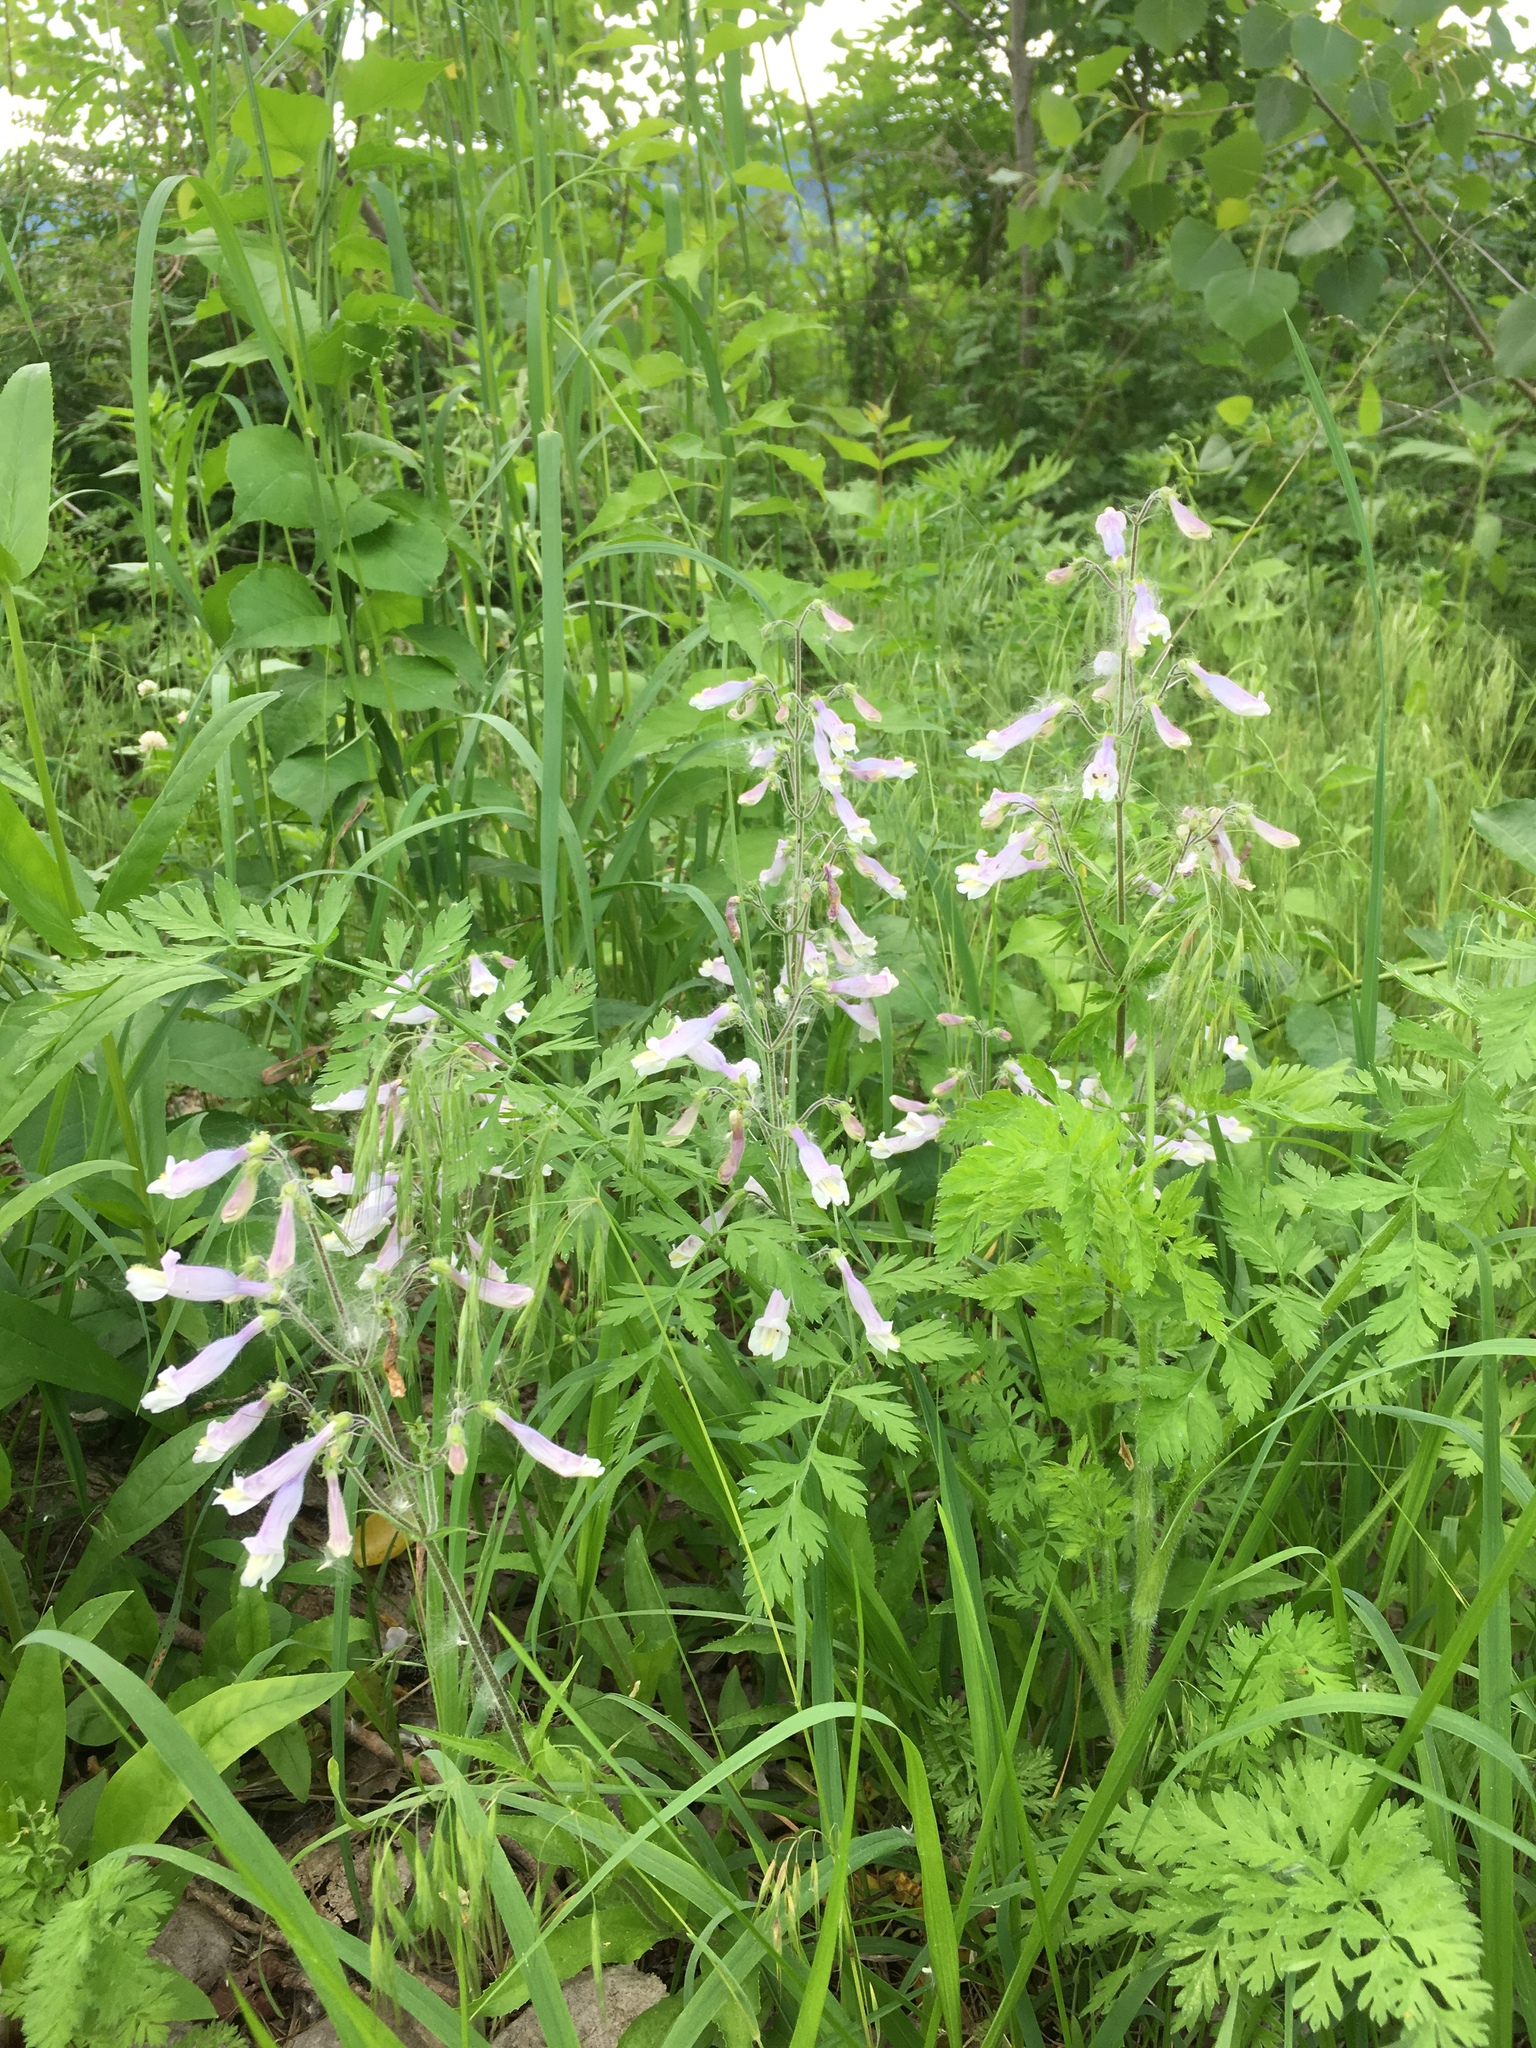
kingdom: Plantae
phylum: Tracheophyta
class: Magnoliopsida
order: Lamiales
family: Plantaginaceae
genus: Penstemon
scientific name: Penstemon hirsutus
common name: Hairy beardtongue
